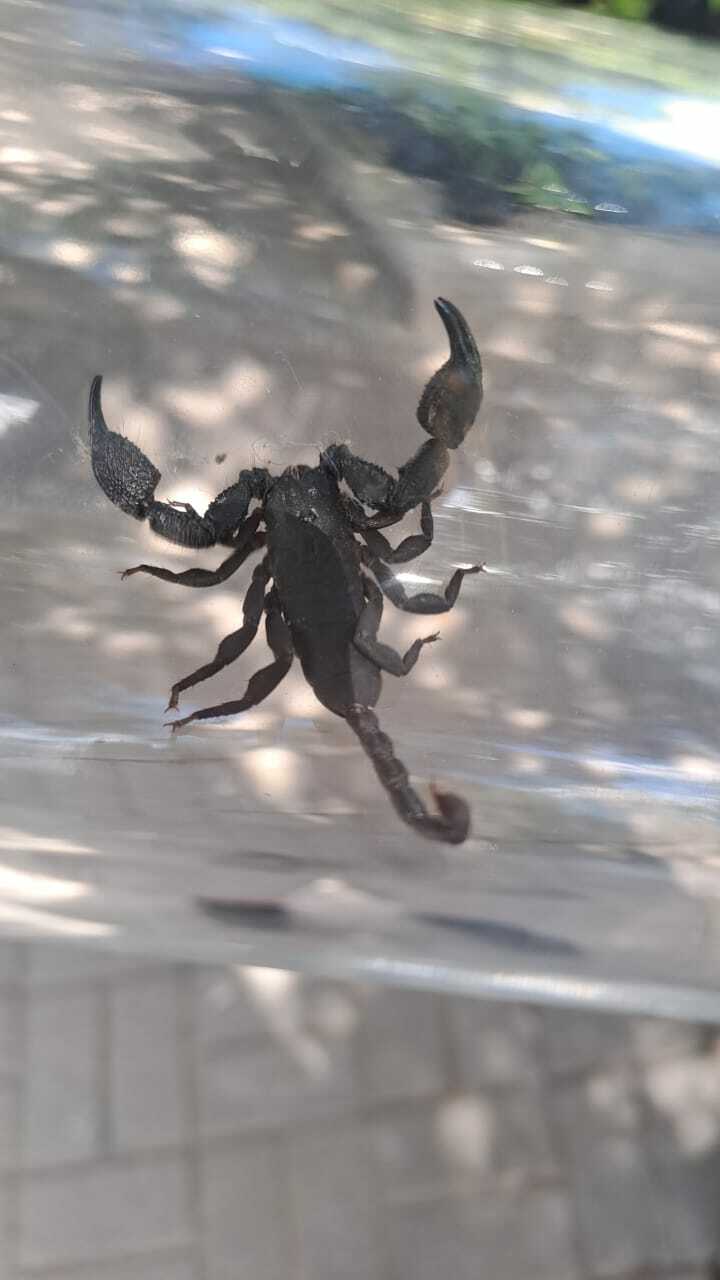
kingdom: Animalia
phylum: Arthropoda
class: Arachnida
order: Scorpiones
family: Hormuridae
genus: Opisthacanthus
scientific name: Opisthacanthus capensis
